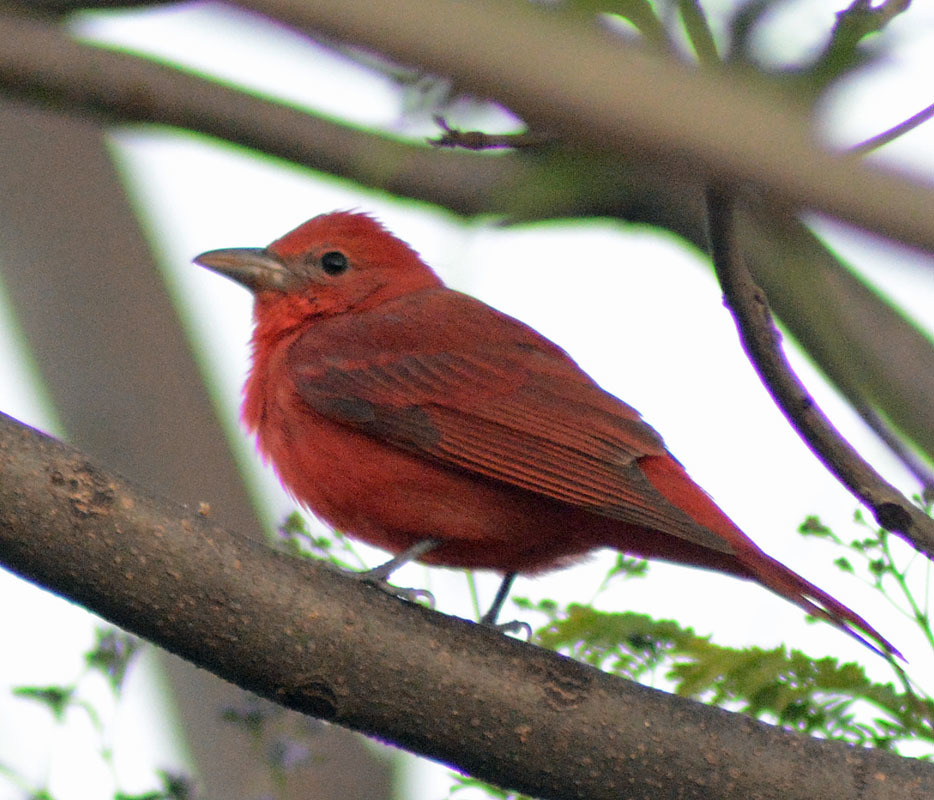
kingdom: Animalia
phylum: Chordata
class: Aves
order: Passeriformes
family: Cardinalidae
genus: Piranga
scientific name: Piranga flava
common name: Red tanager
